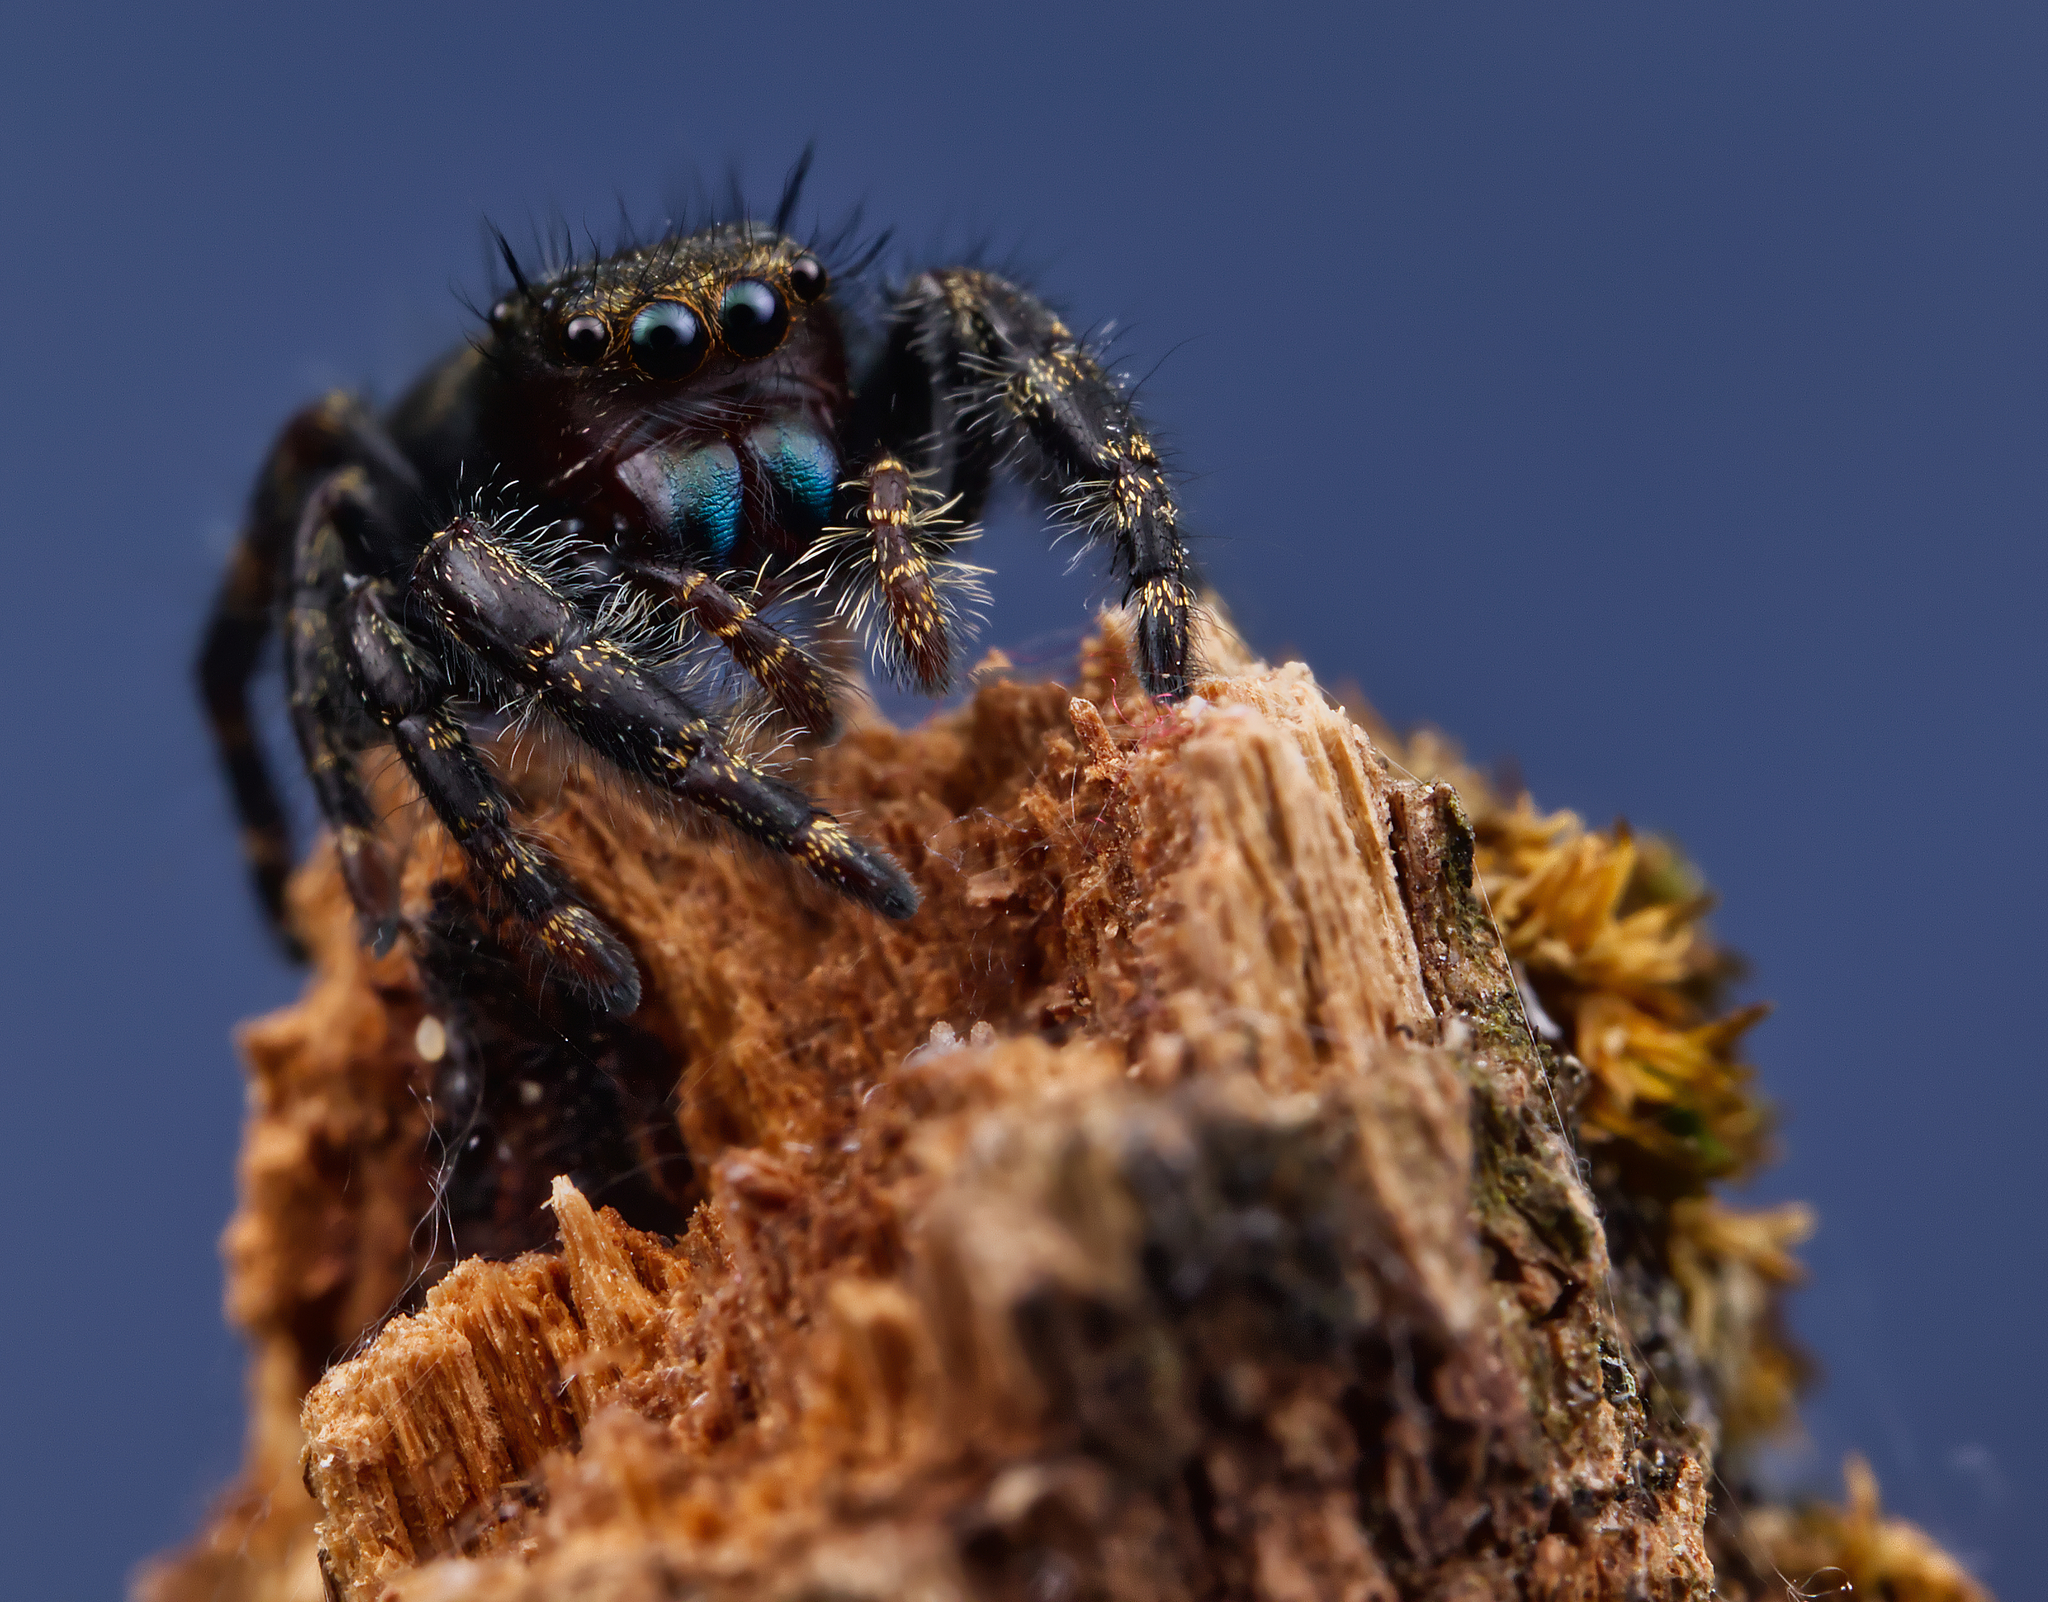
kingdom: Animalia
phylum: Arthropoda
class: Arachnida
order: Araneae
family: Salticidae
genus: Phidippus
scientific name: Phidippus audax
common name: Bold jumper
